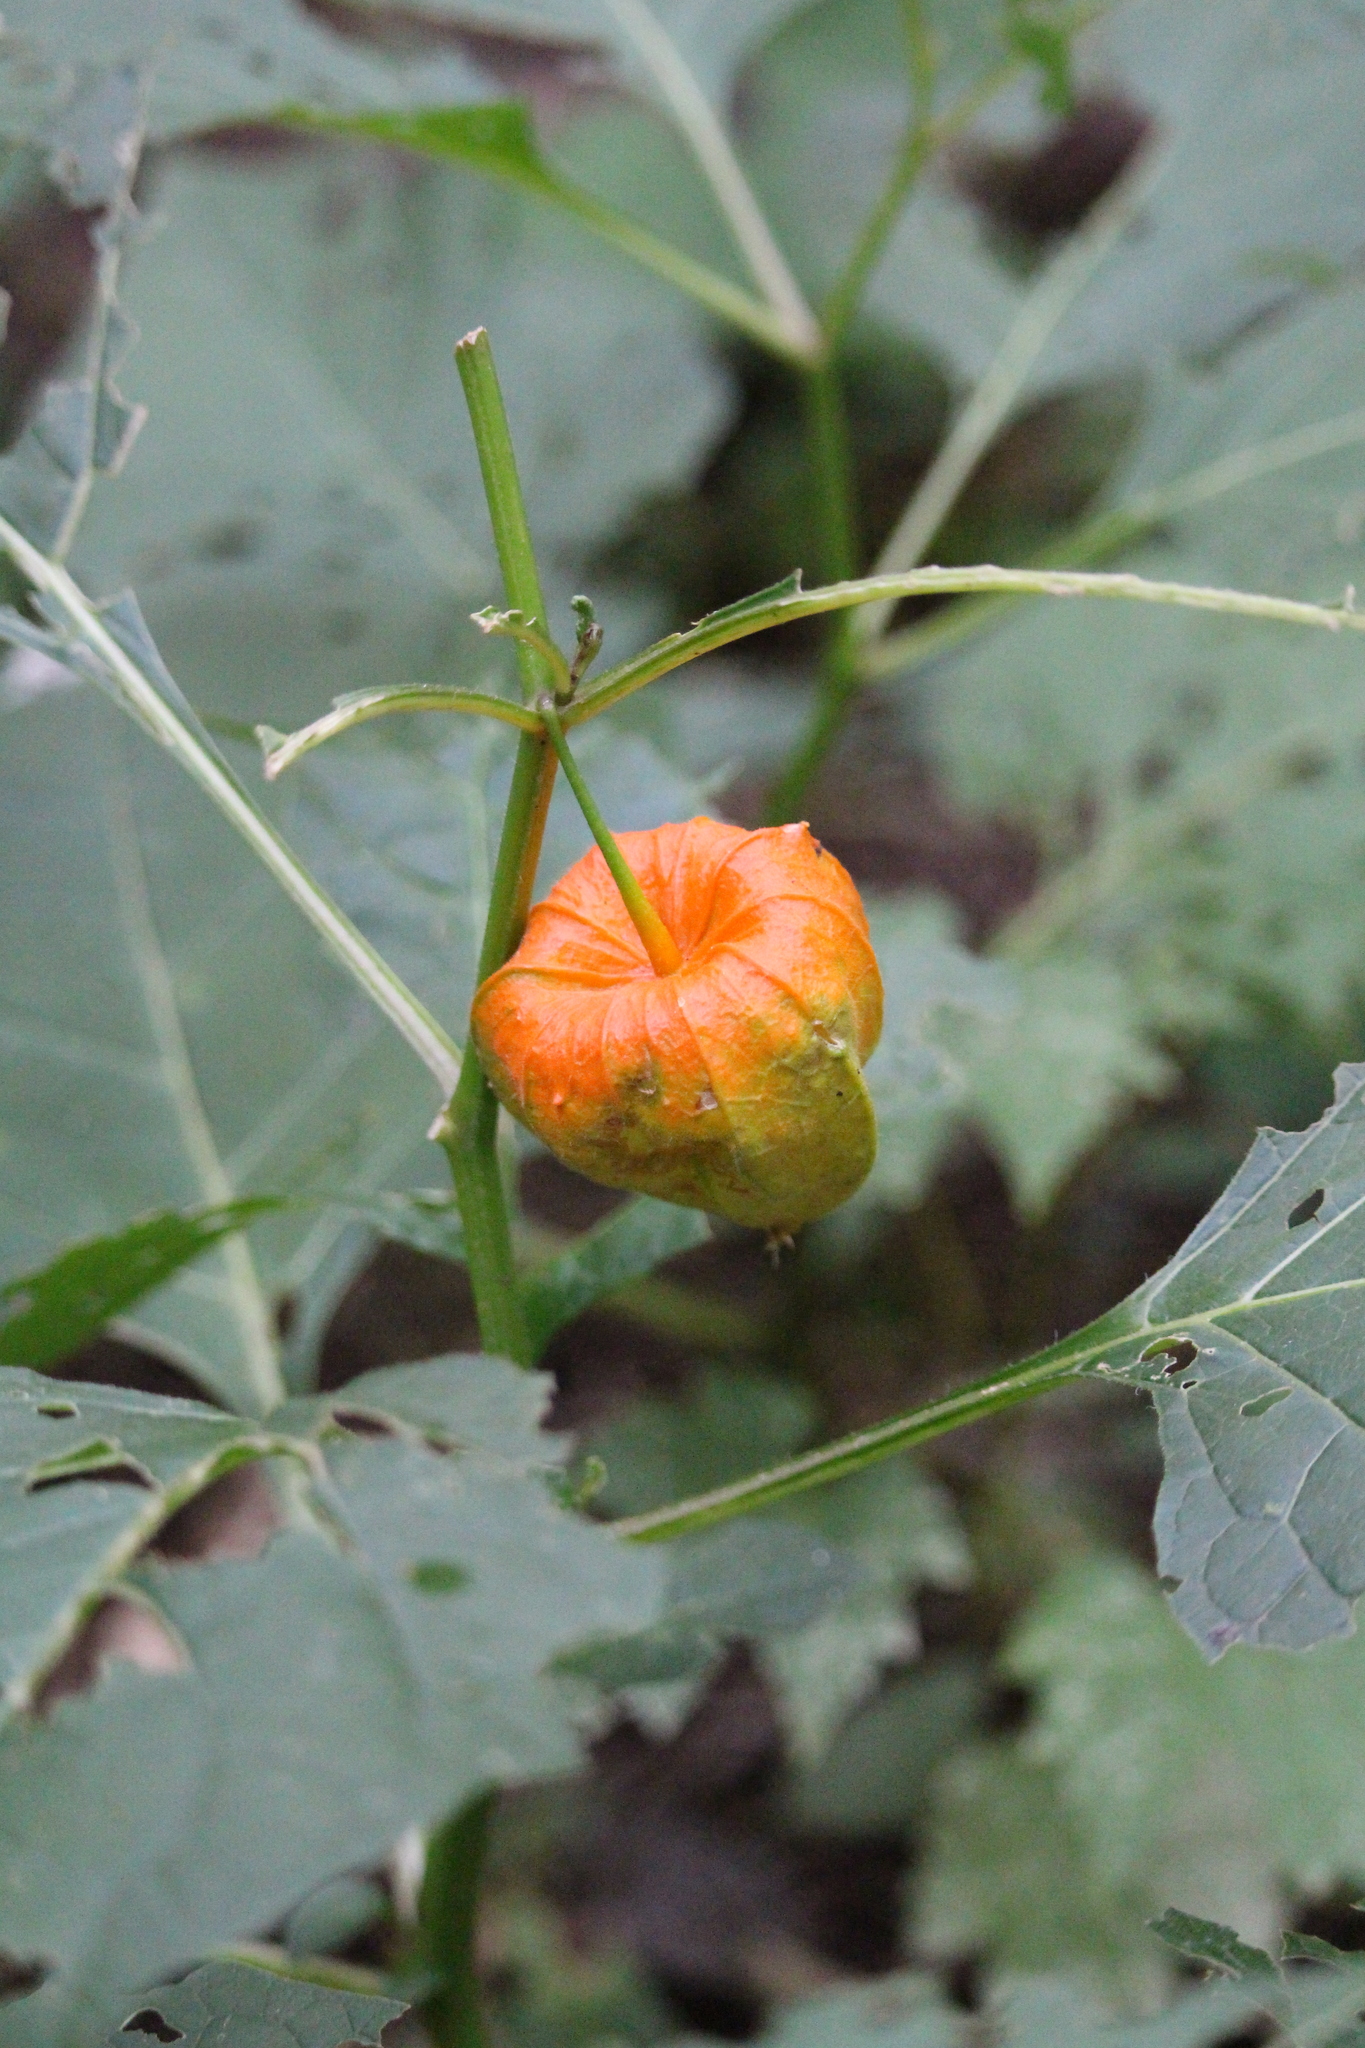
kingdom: Plantae
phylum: Tracheophyta
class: Magnoliopsida
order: Solanales
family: Solanaceae
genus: Alkekengi
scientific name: Alkekengi officinarum
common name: Japanese-lantern
